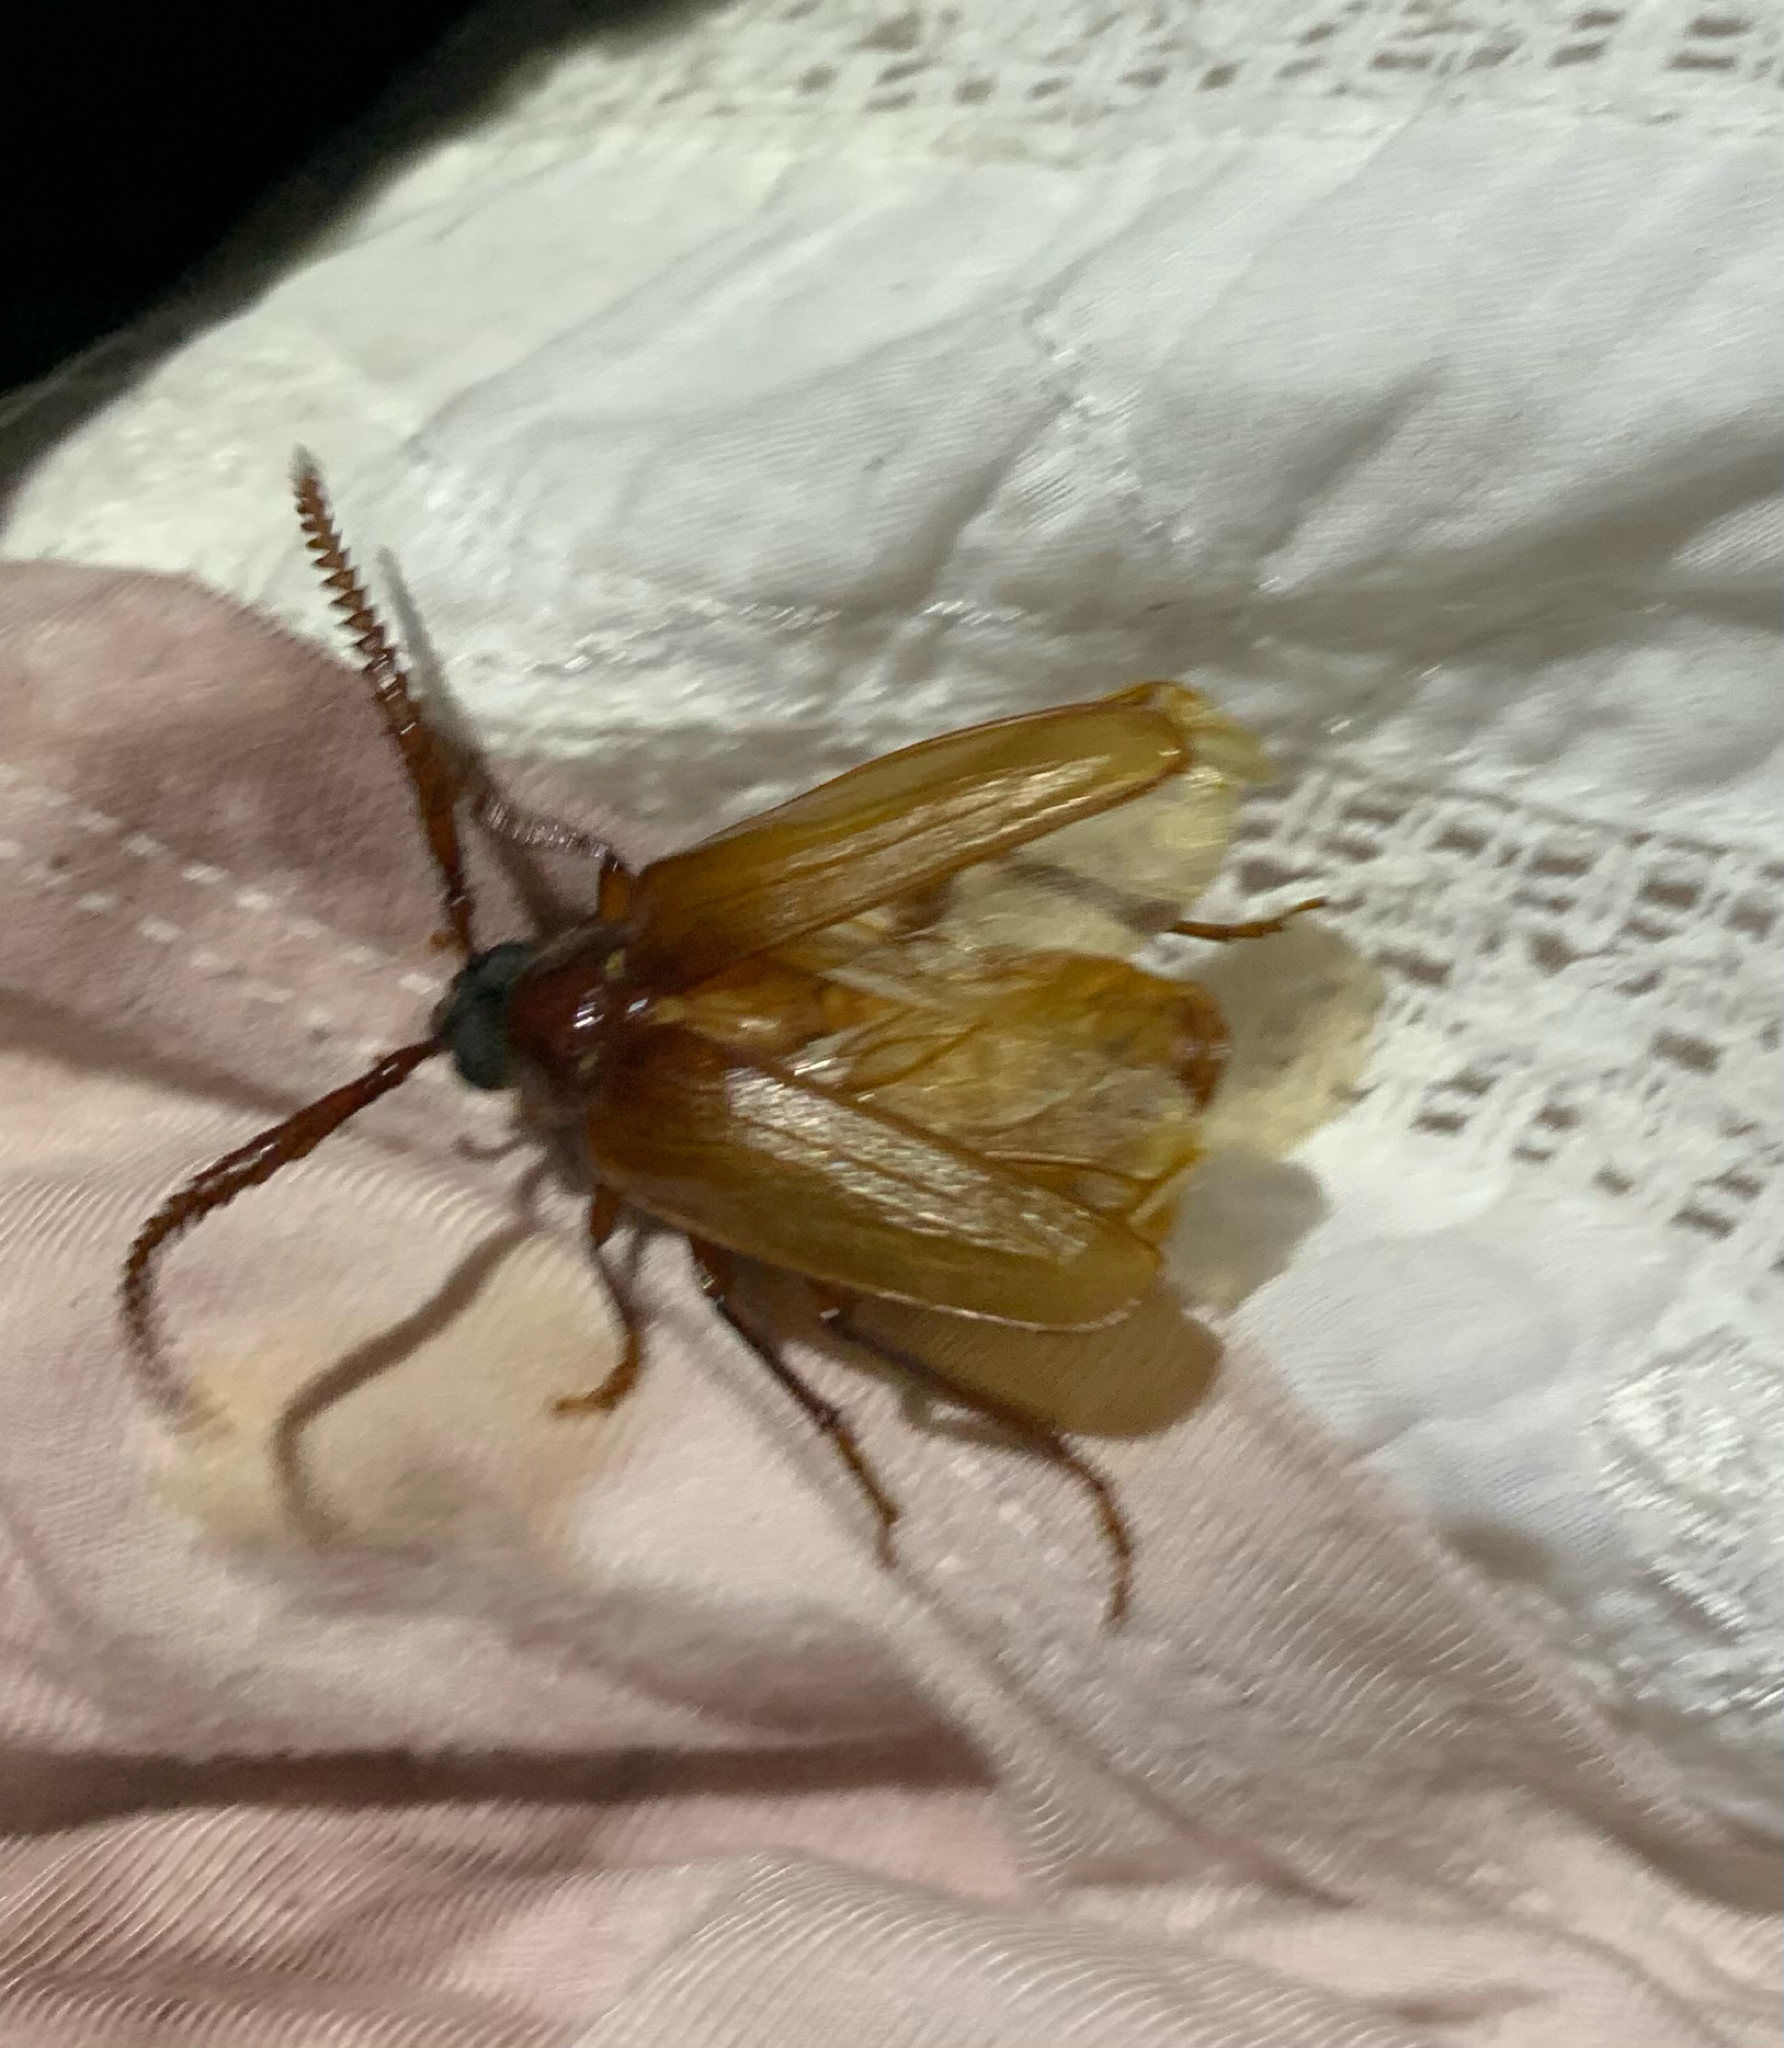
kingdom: Animalia
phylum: Arthropoda
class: Insecta
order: Coleoptera
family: Cerambycidae
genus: Prionus
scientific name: Prionus debilis
